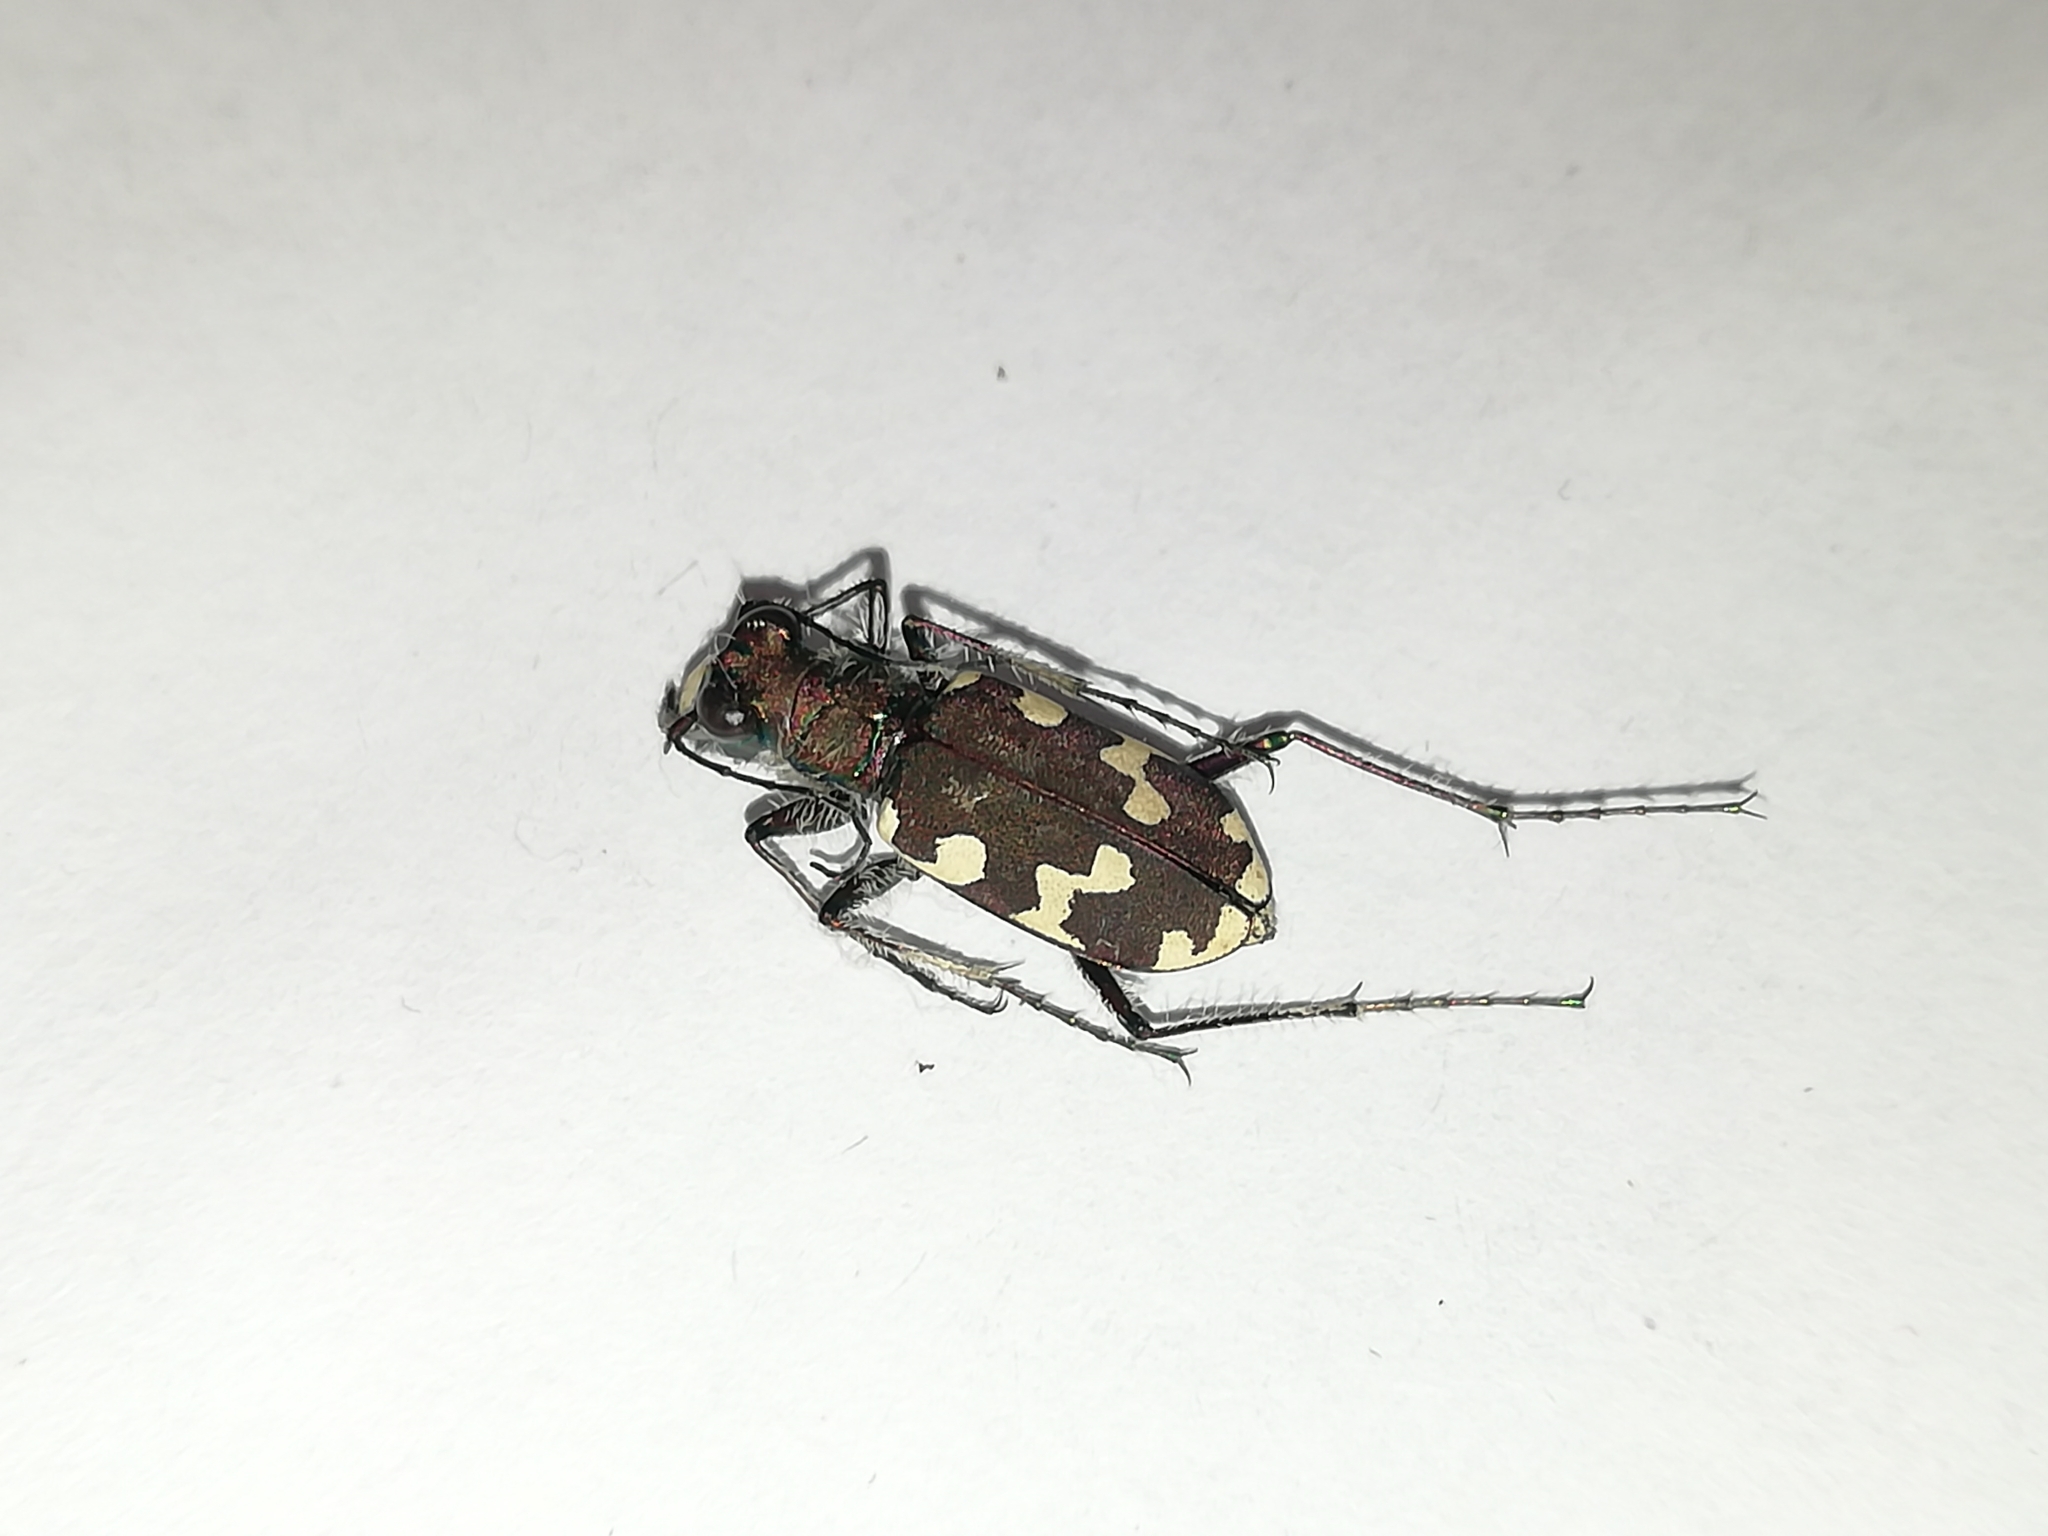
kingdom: Animalia
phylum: Arthropoda
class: Insecta
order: Coleoptera
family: Carabidae
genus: Cicindela
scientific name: Cicindela hybrida
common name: Northern dune tiger beetle
